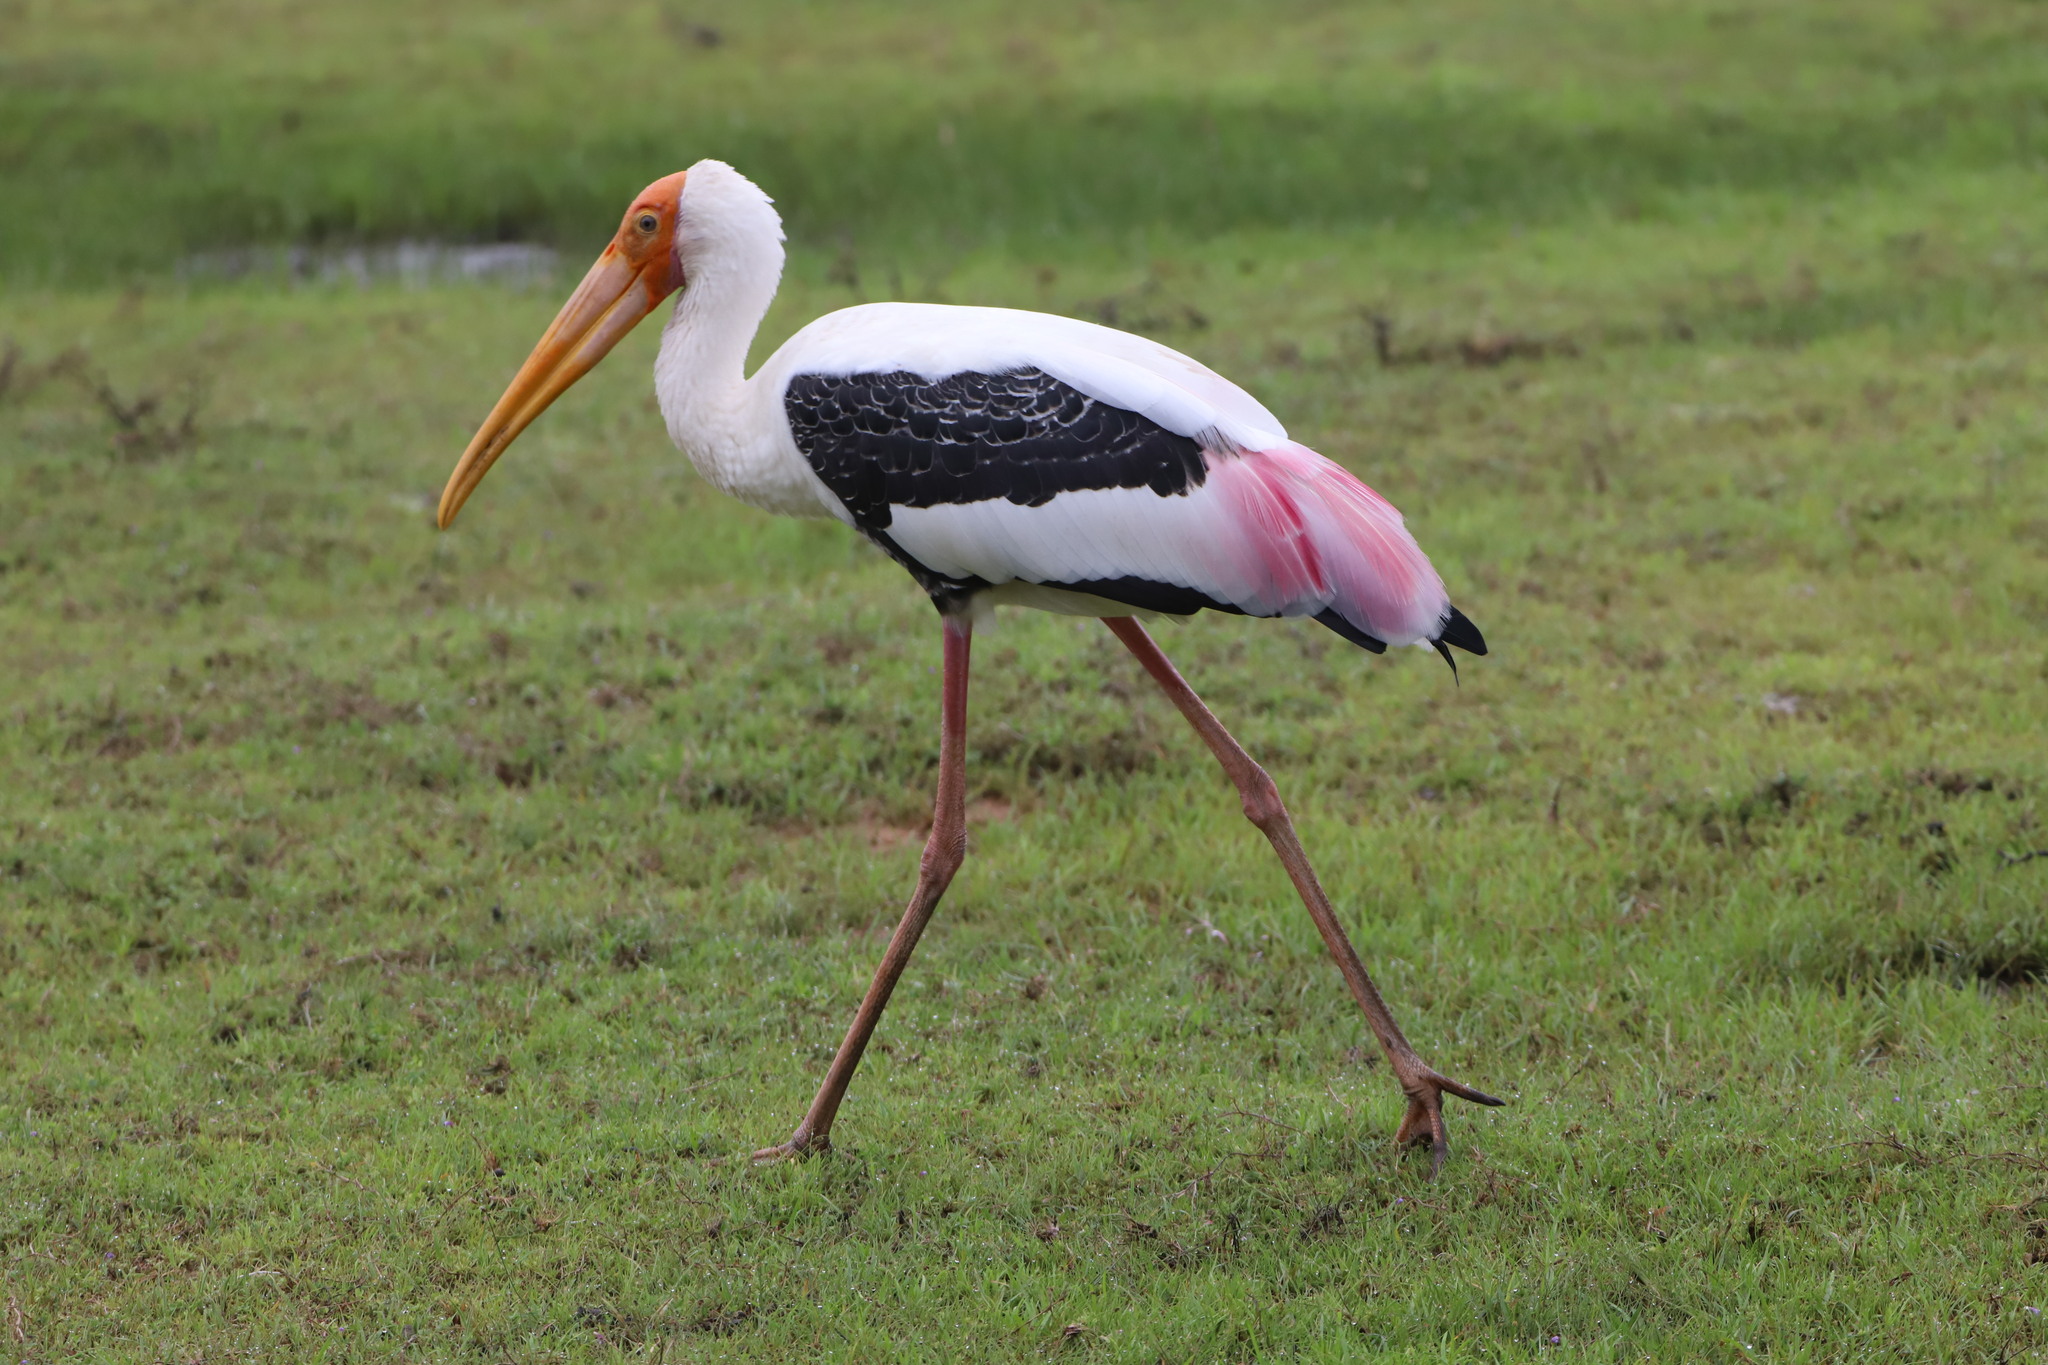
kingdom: Animalia
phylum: Chordata
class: Aves
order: Ciconiiformes
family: Ciconiidae
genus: Mycteria
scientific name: Mycteria leucocephala
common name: Painted stork
